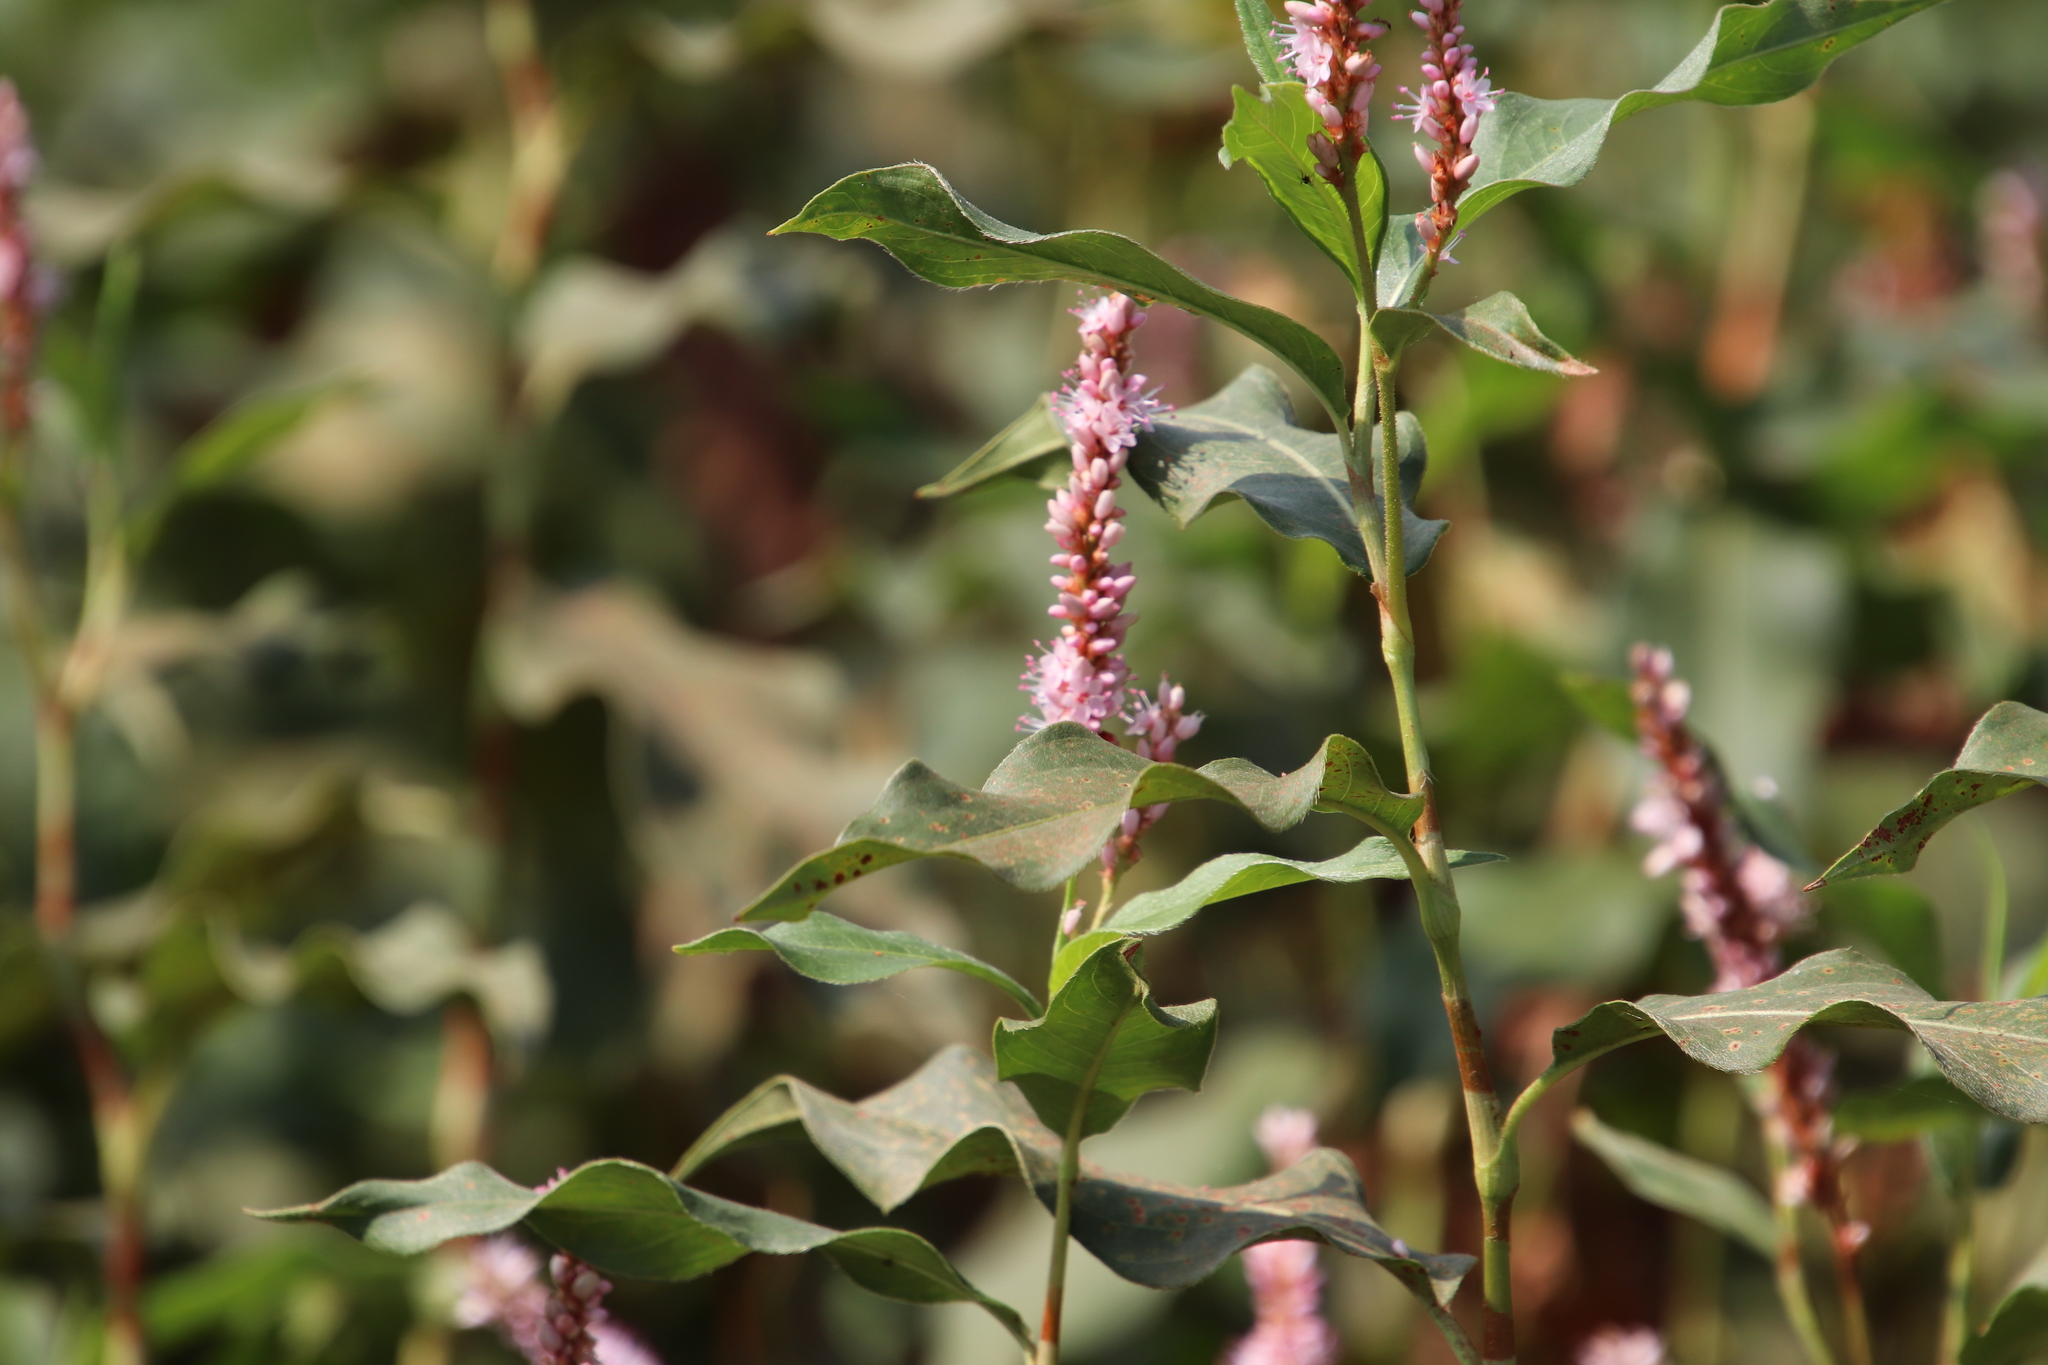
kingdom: Plantae
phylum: Tracheophyta
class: Magnoliopsida
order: Caryophyllales
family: Polygonaceae
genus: Persicaria
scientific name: Persicaria amphibia
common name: Amphibious bistort
